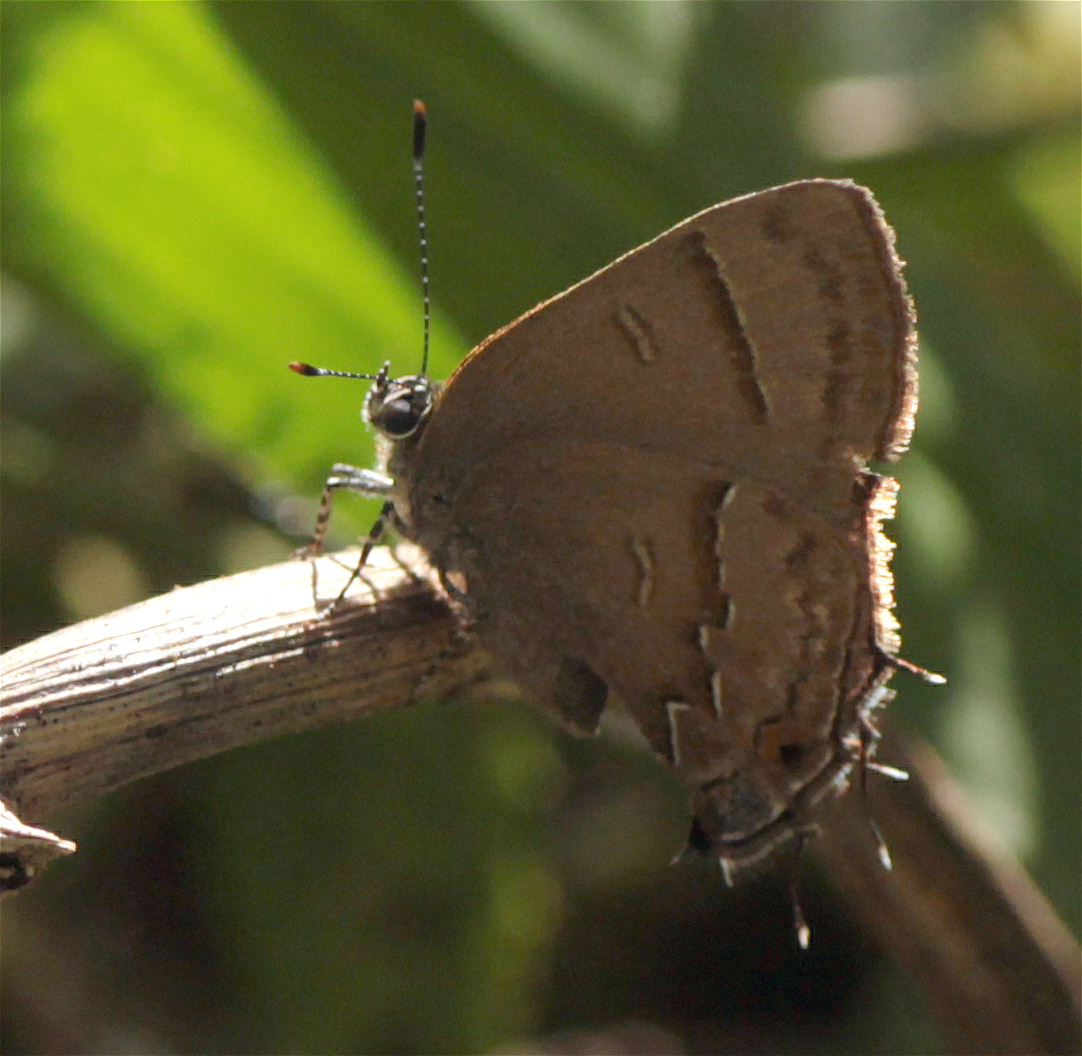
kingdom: Animalia
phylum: Arthropoda
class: Insecta
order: Lepidoptera
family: Lycaenidae
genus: Electrostrymon
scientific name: Electrostrymon perisus
